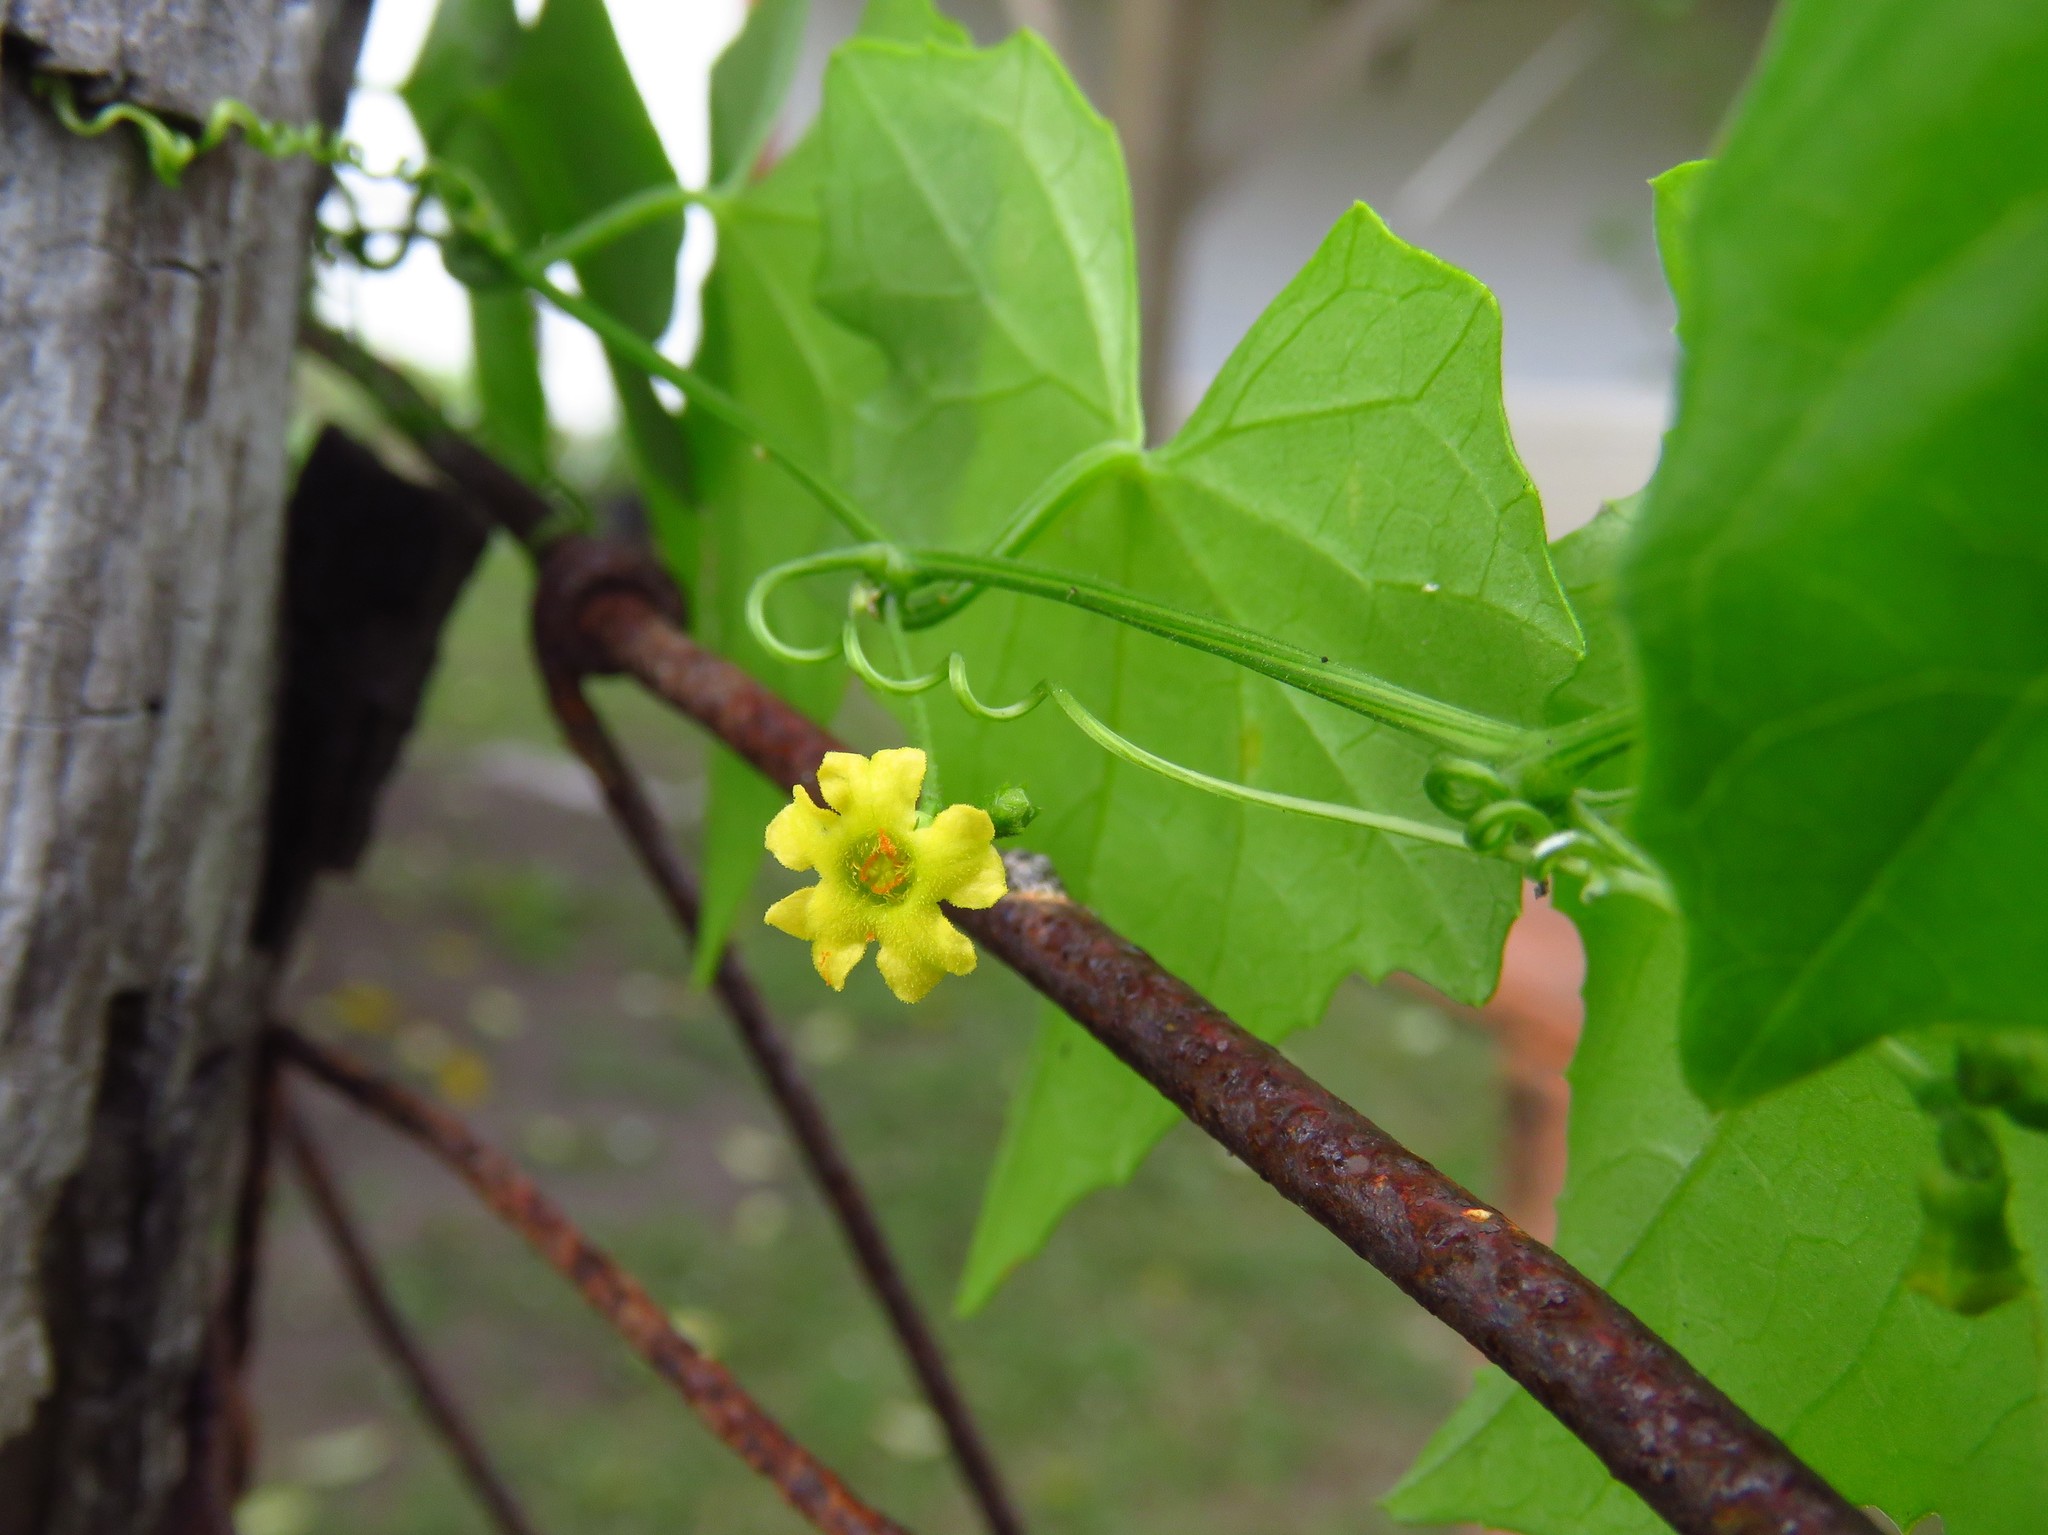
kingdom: Plantae
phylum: Tracheophyta
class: Magnoliopsida
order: Cucurbitales
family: Cucurbitaceae
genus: Melothria
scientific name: Melothria pendula
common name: Creeping-cucumber
